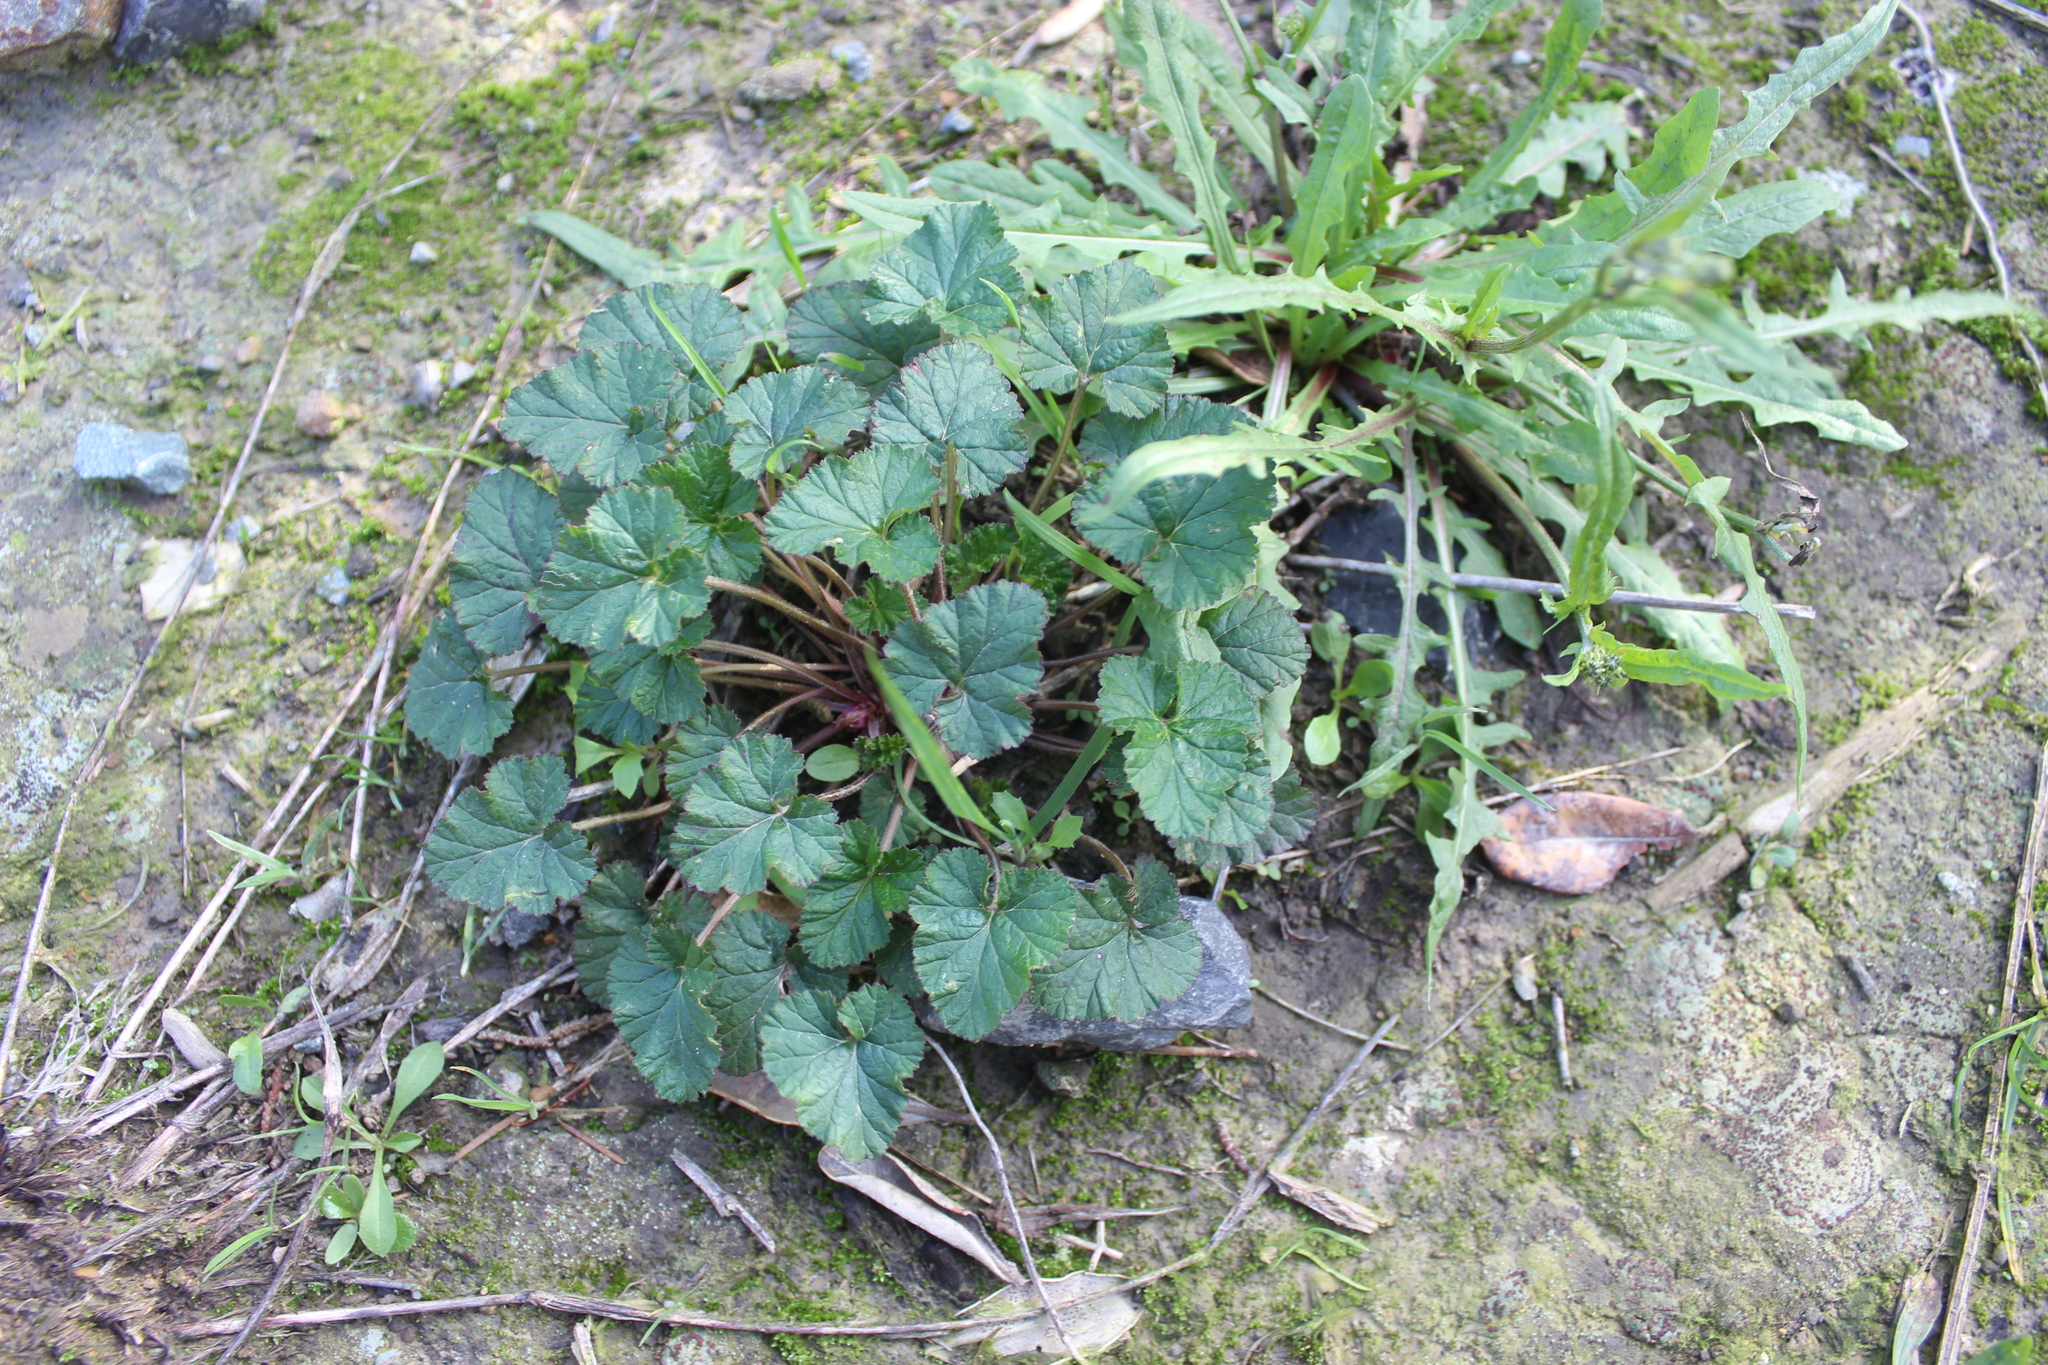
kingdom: Plantae
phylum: Tracheophyta
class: Magnoliopsida
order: Geraniales
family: Geraniaceae
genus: Pelargonium
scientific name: Pelargonium inodorum
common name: Kopata geranium
